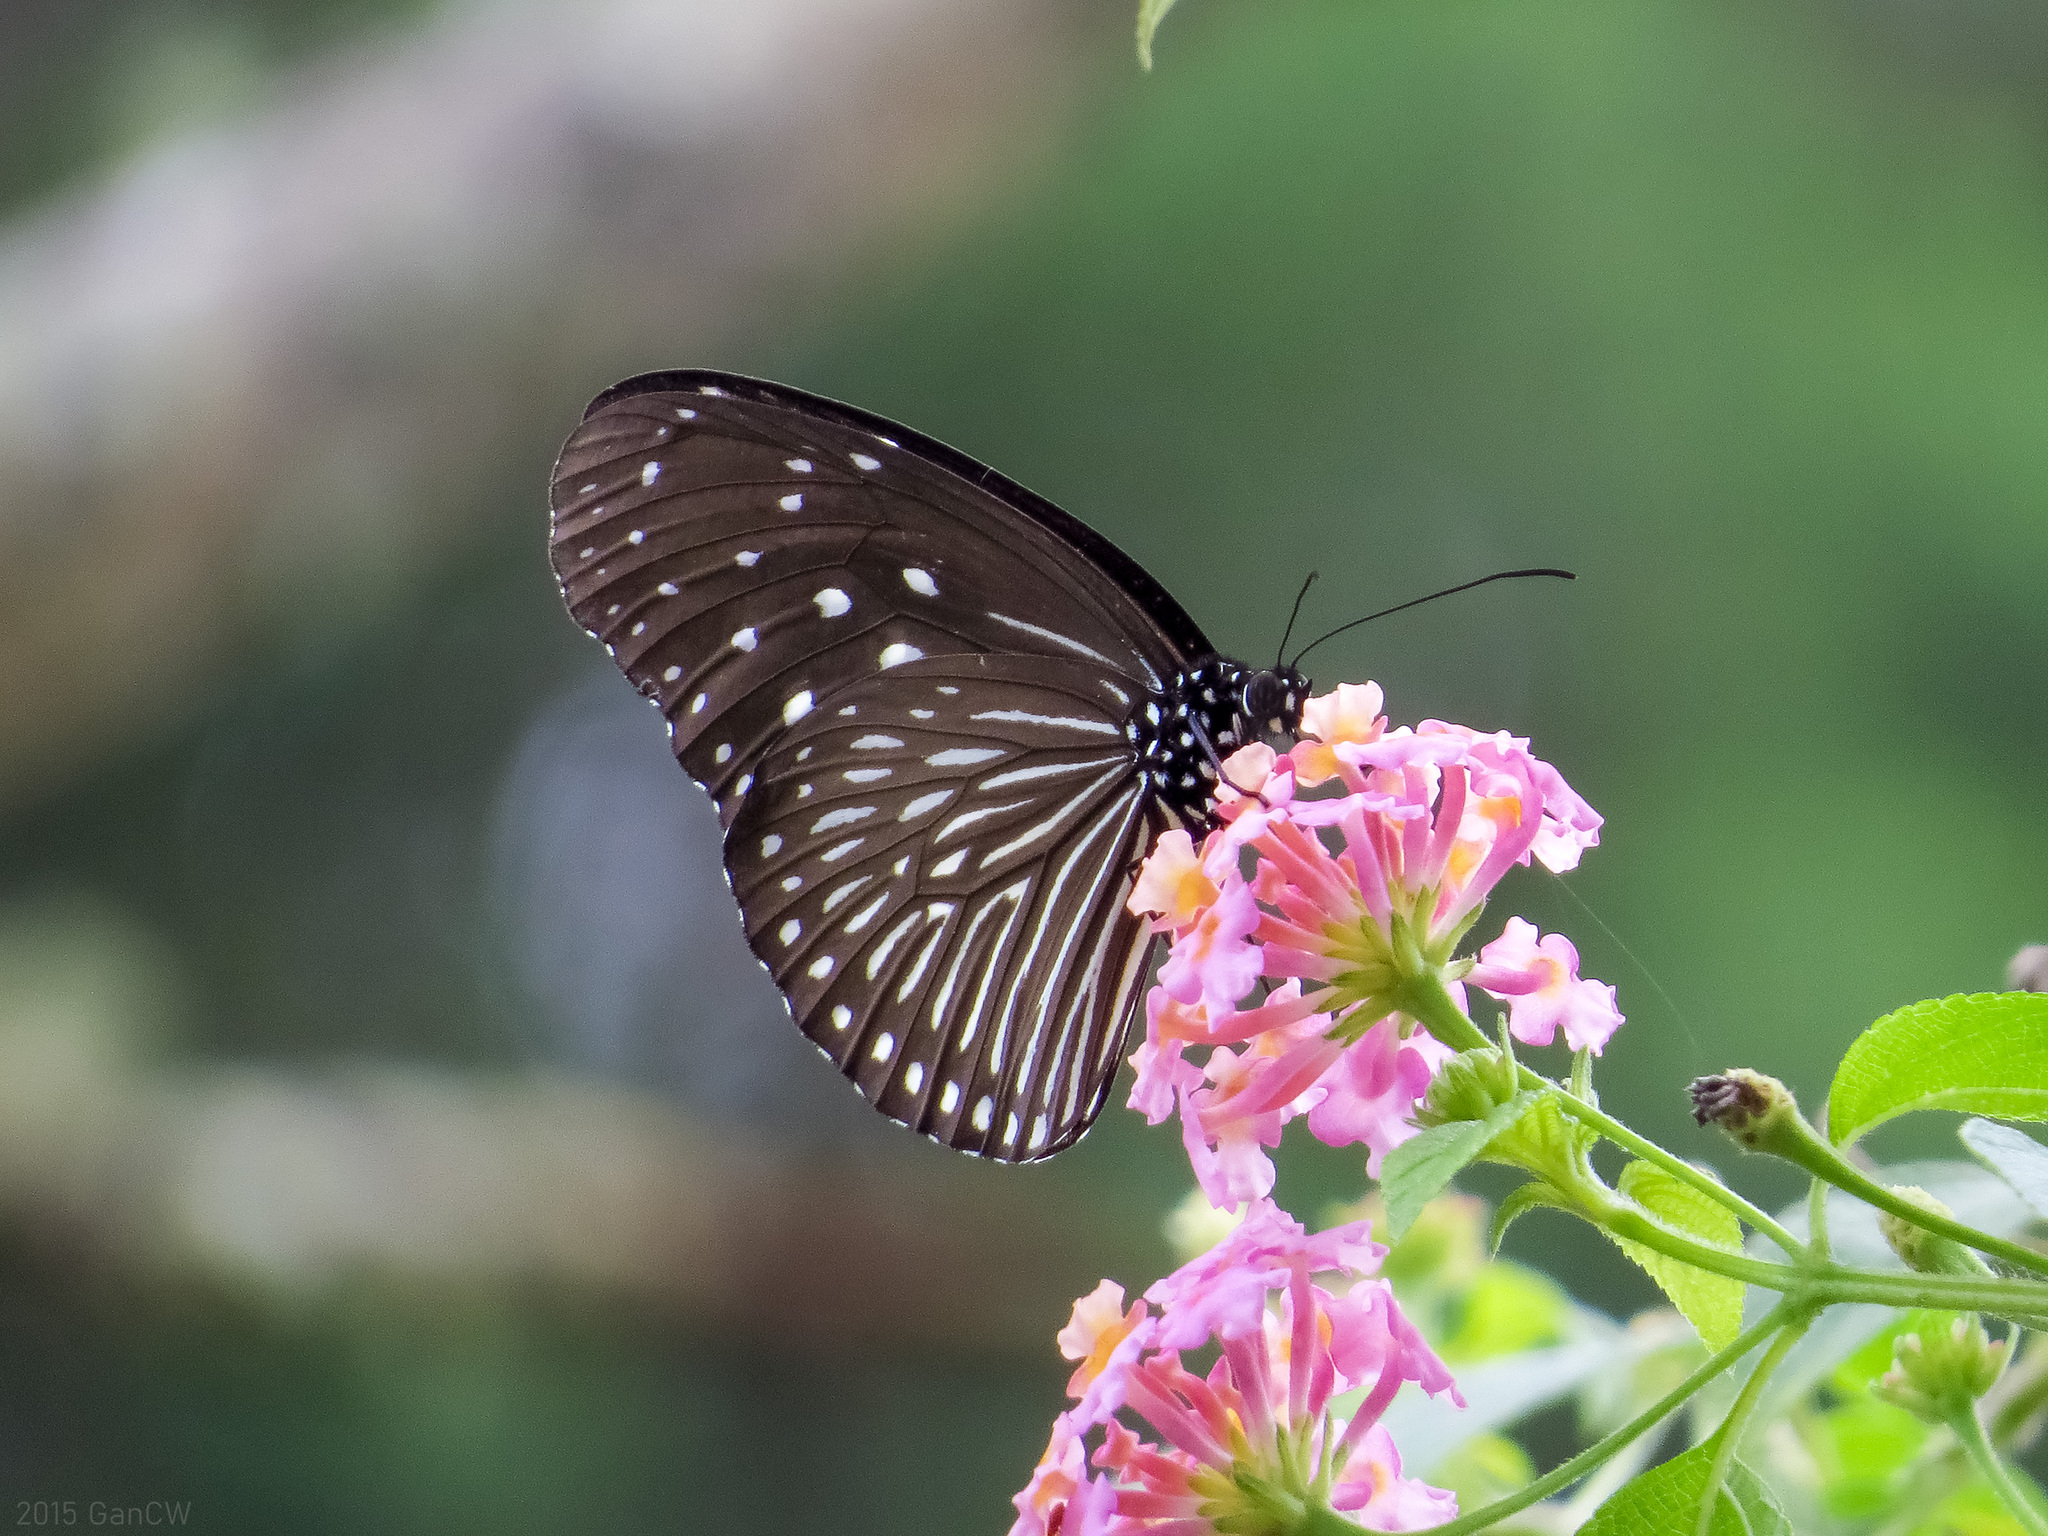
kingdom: Animalia
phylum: Arthropoda
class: Insecta
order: Lepidoptera
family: Nymphalidae
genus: Euploea
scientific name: Euploea mulciber
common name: Striped blue crow butterfly
